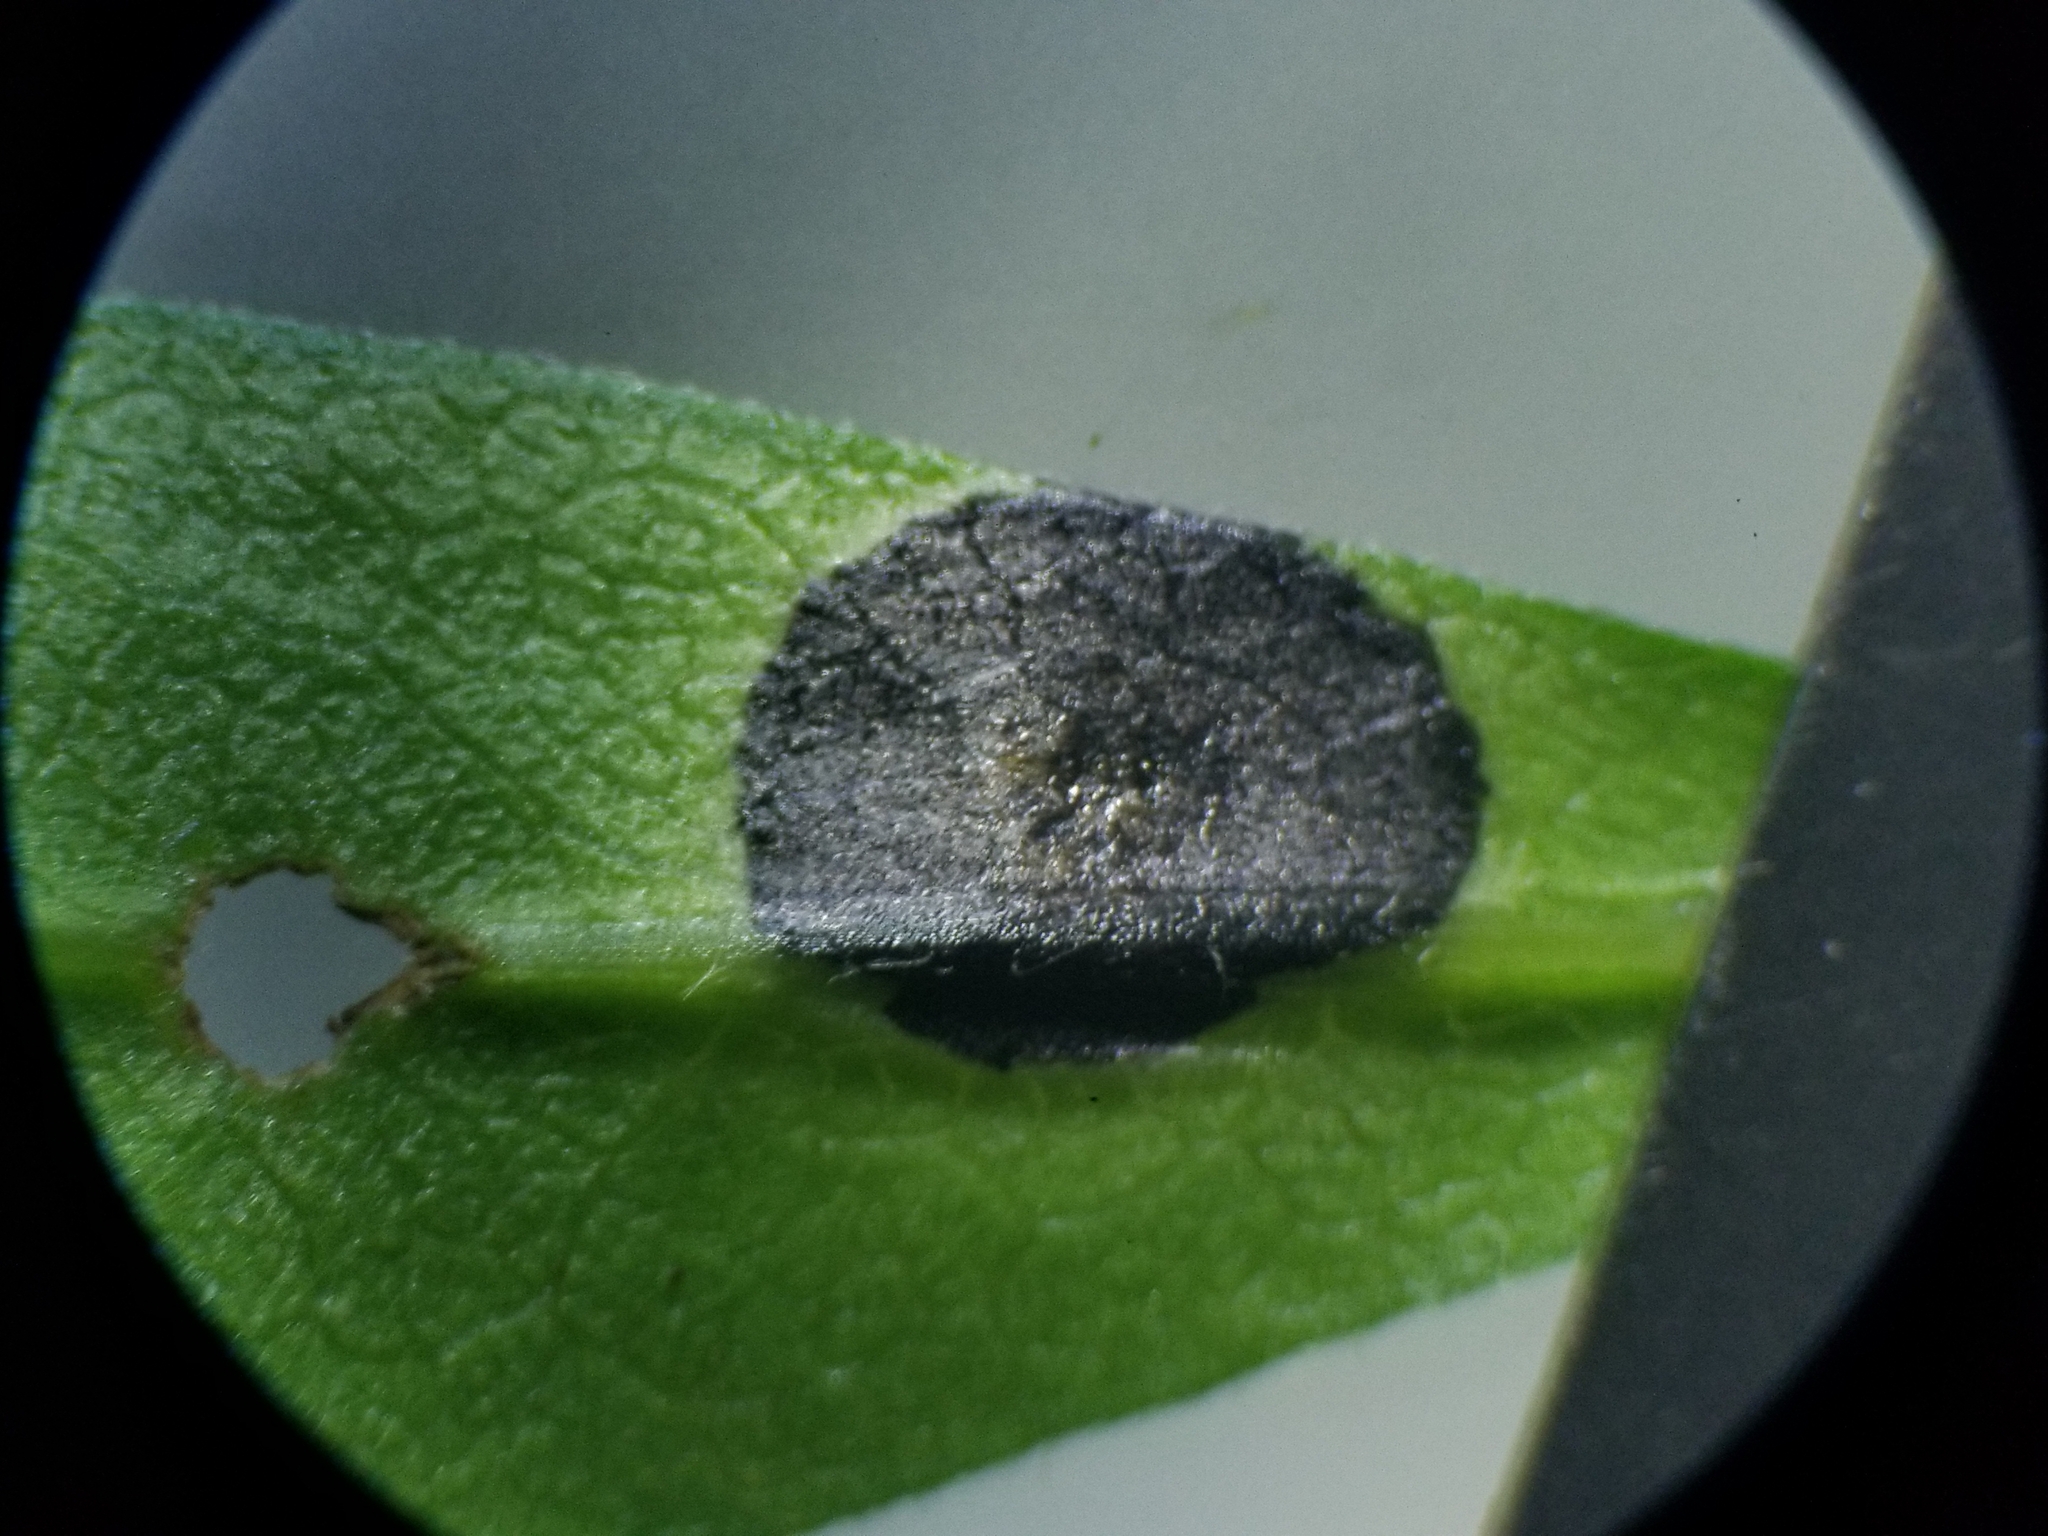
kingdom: Animalia
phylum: Arthropoda
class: Insecta
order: Diptera
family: Cecidomyiidae
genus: Asteromyia
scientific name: Asteromyia laeviana
